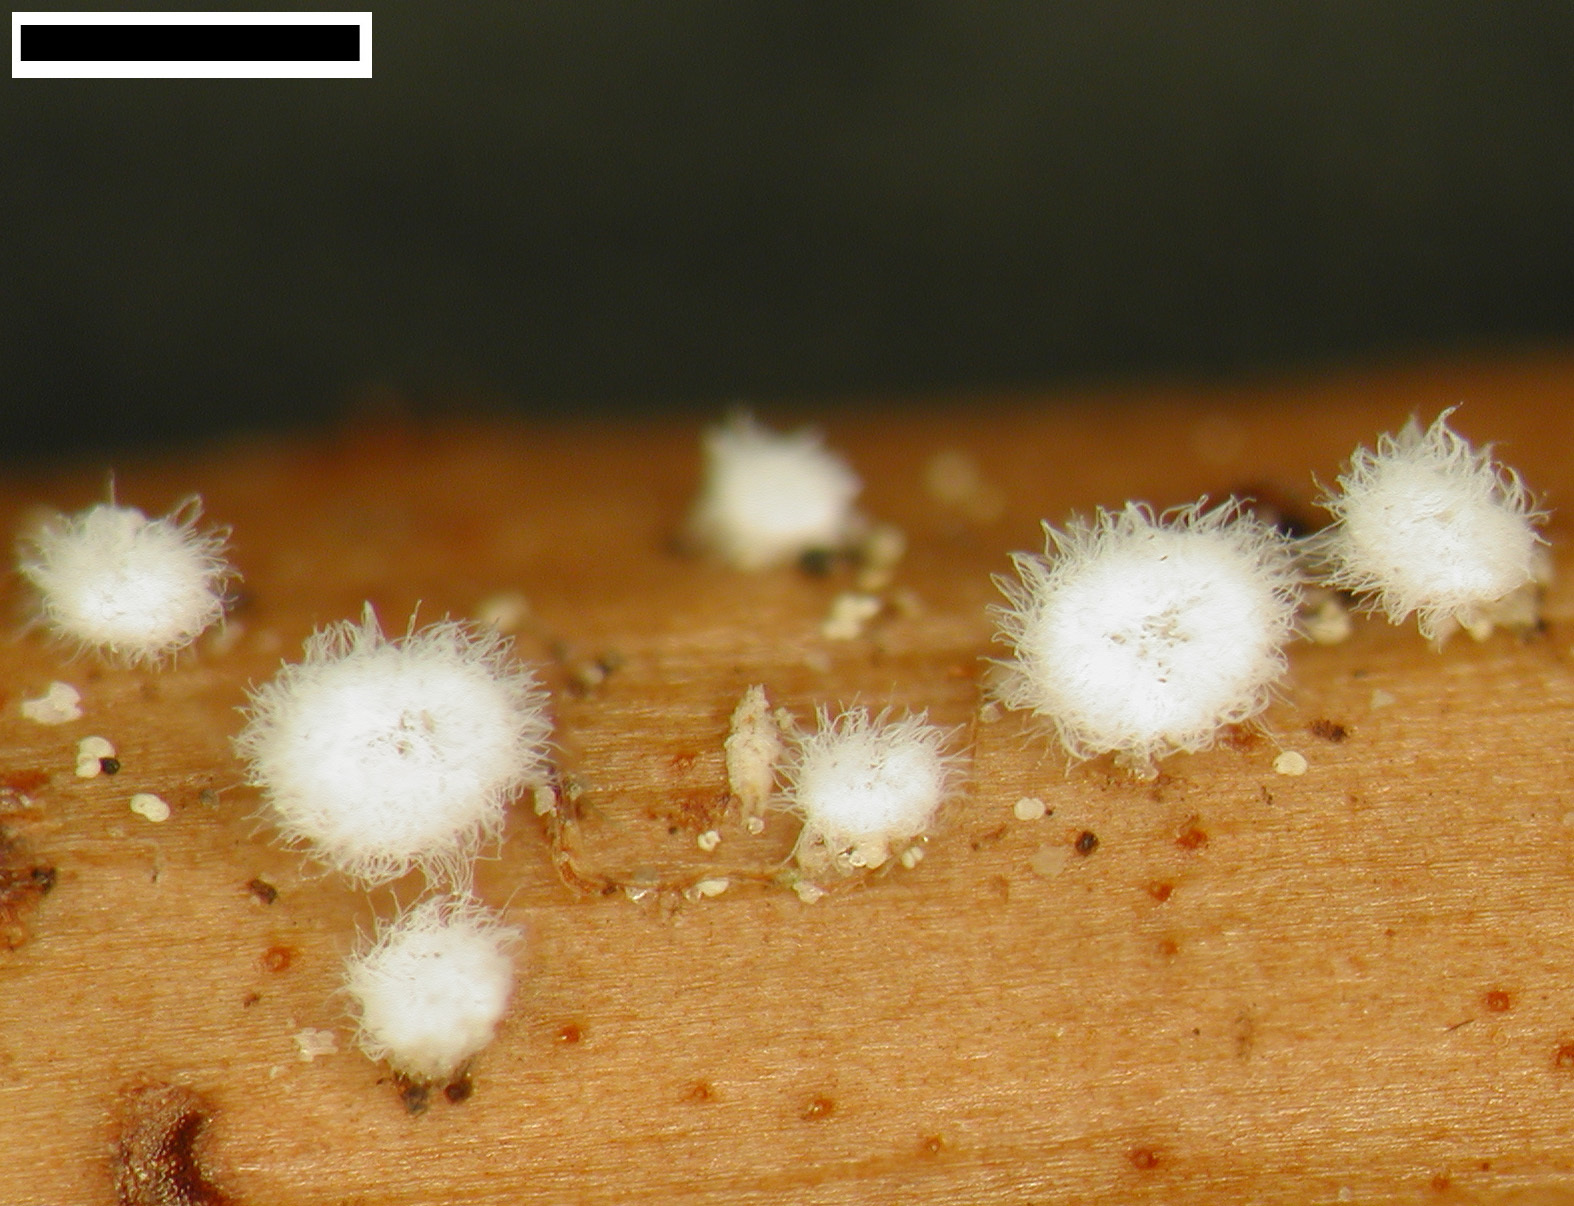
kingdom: Fungi
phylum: Basidiomycota
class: Agaricomycetes
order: Agaricales
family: Niaceae
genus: Flagelloscypha
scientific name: Flagelloscypha austrofilicis
